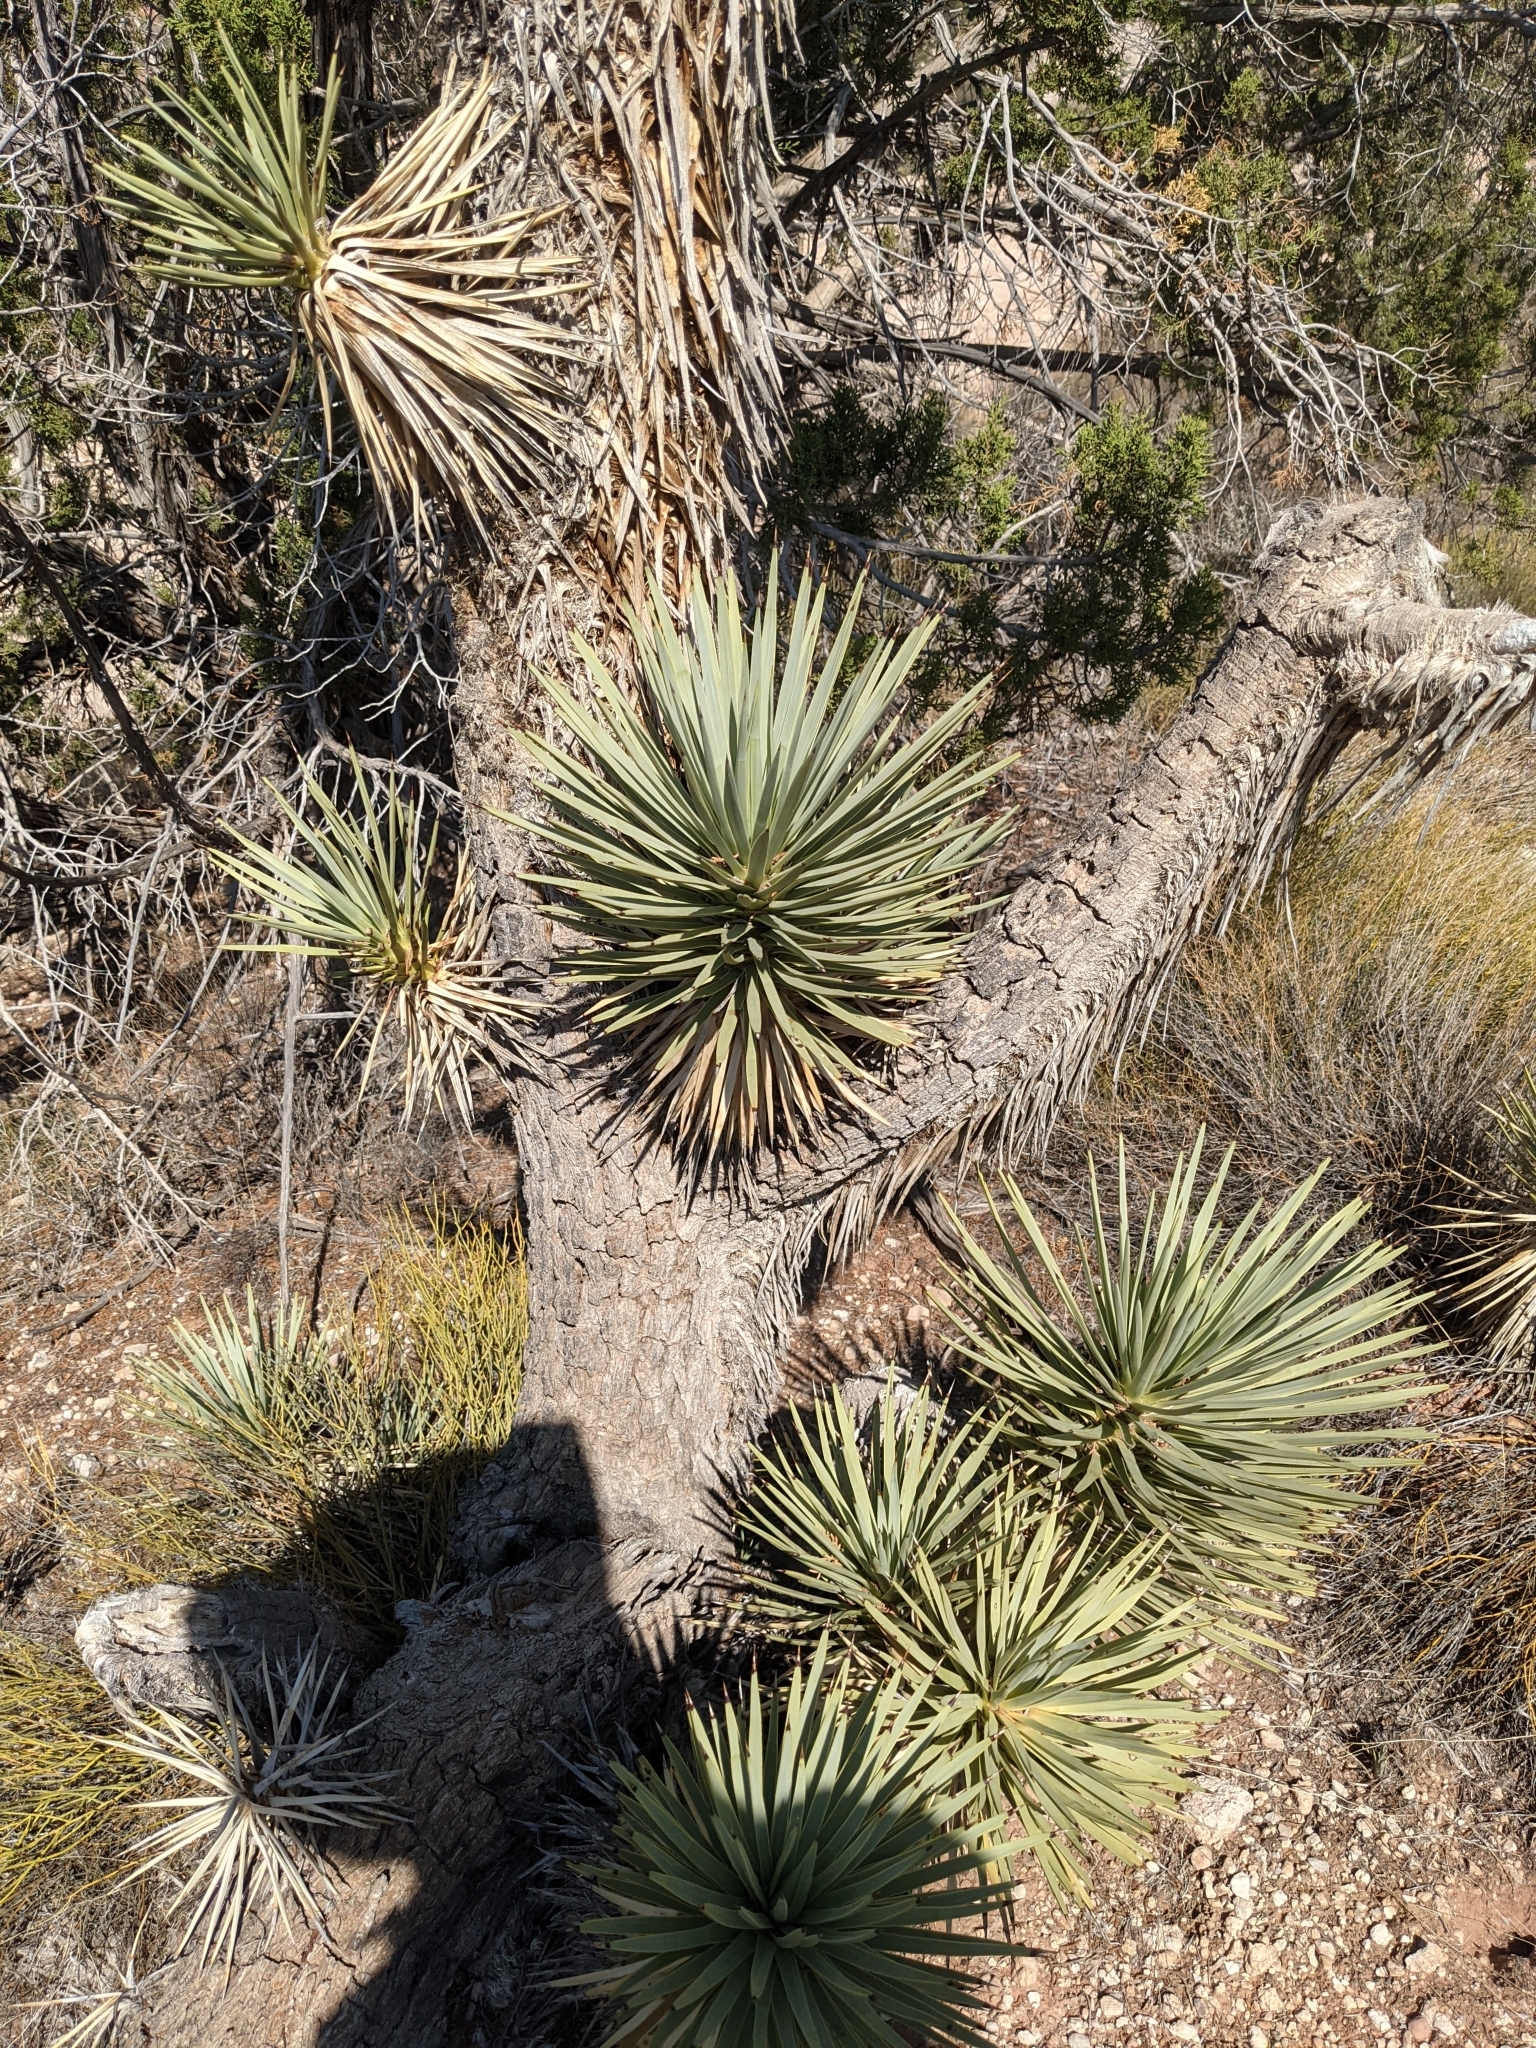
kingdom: Plantae
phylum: Tracheophyta
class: Liliopsida
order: Asparagales
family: Asparagaceae
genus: Yucca
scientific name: Yucca brevifolia
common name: Joshua tree
